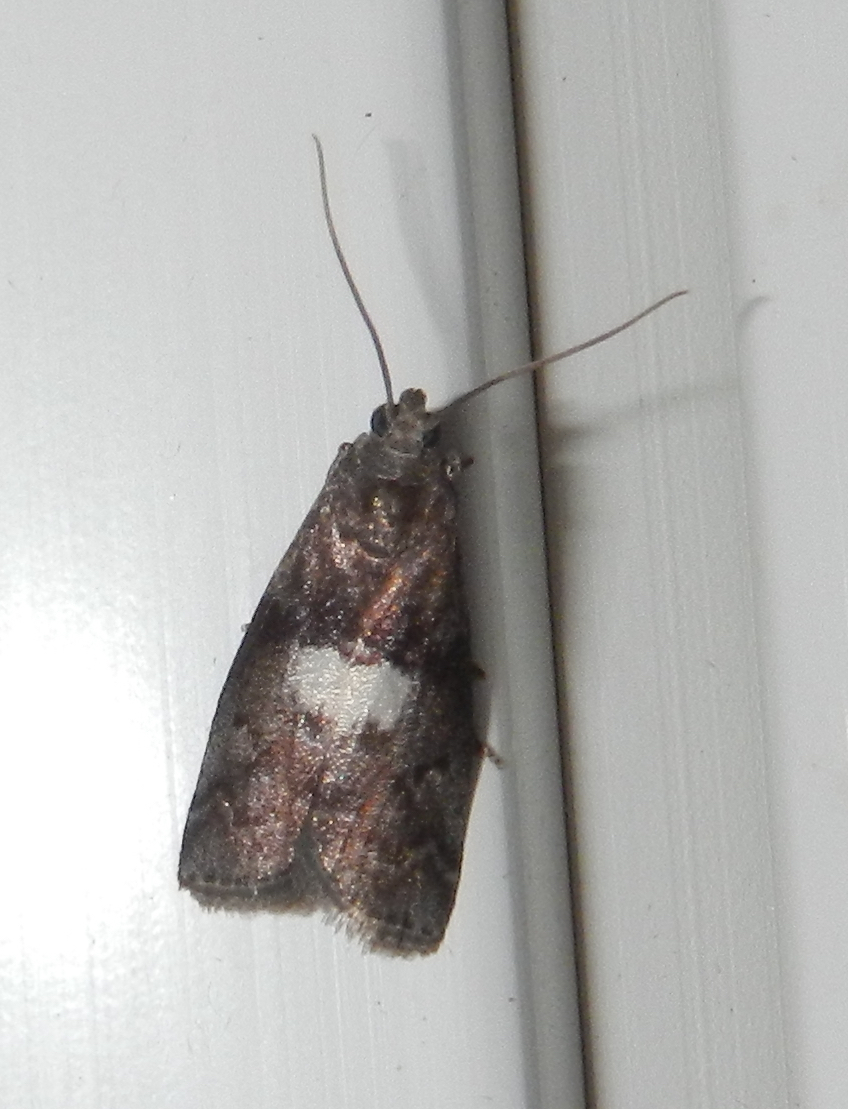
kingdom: Animalia
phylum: Arthropoda
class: Insecta
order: Lepidoptera
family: Pyralidae
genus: Salebriaria
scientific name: Salebriaria engeli
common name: Engel's salebriaria moth
